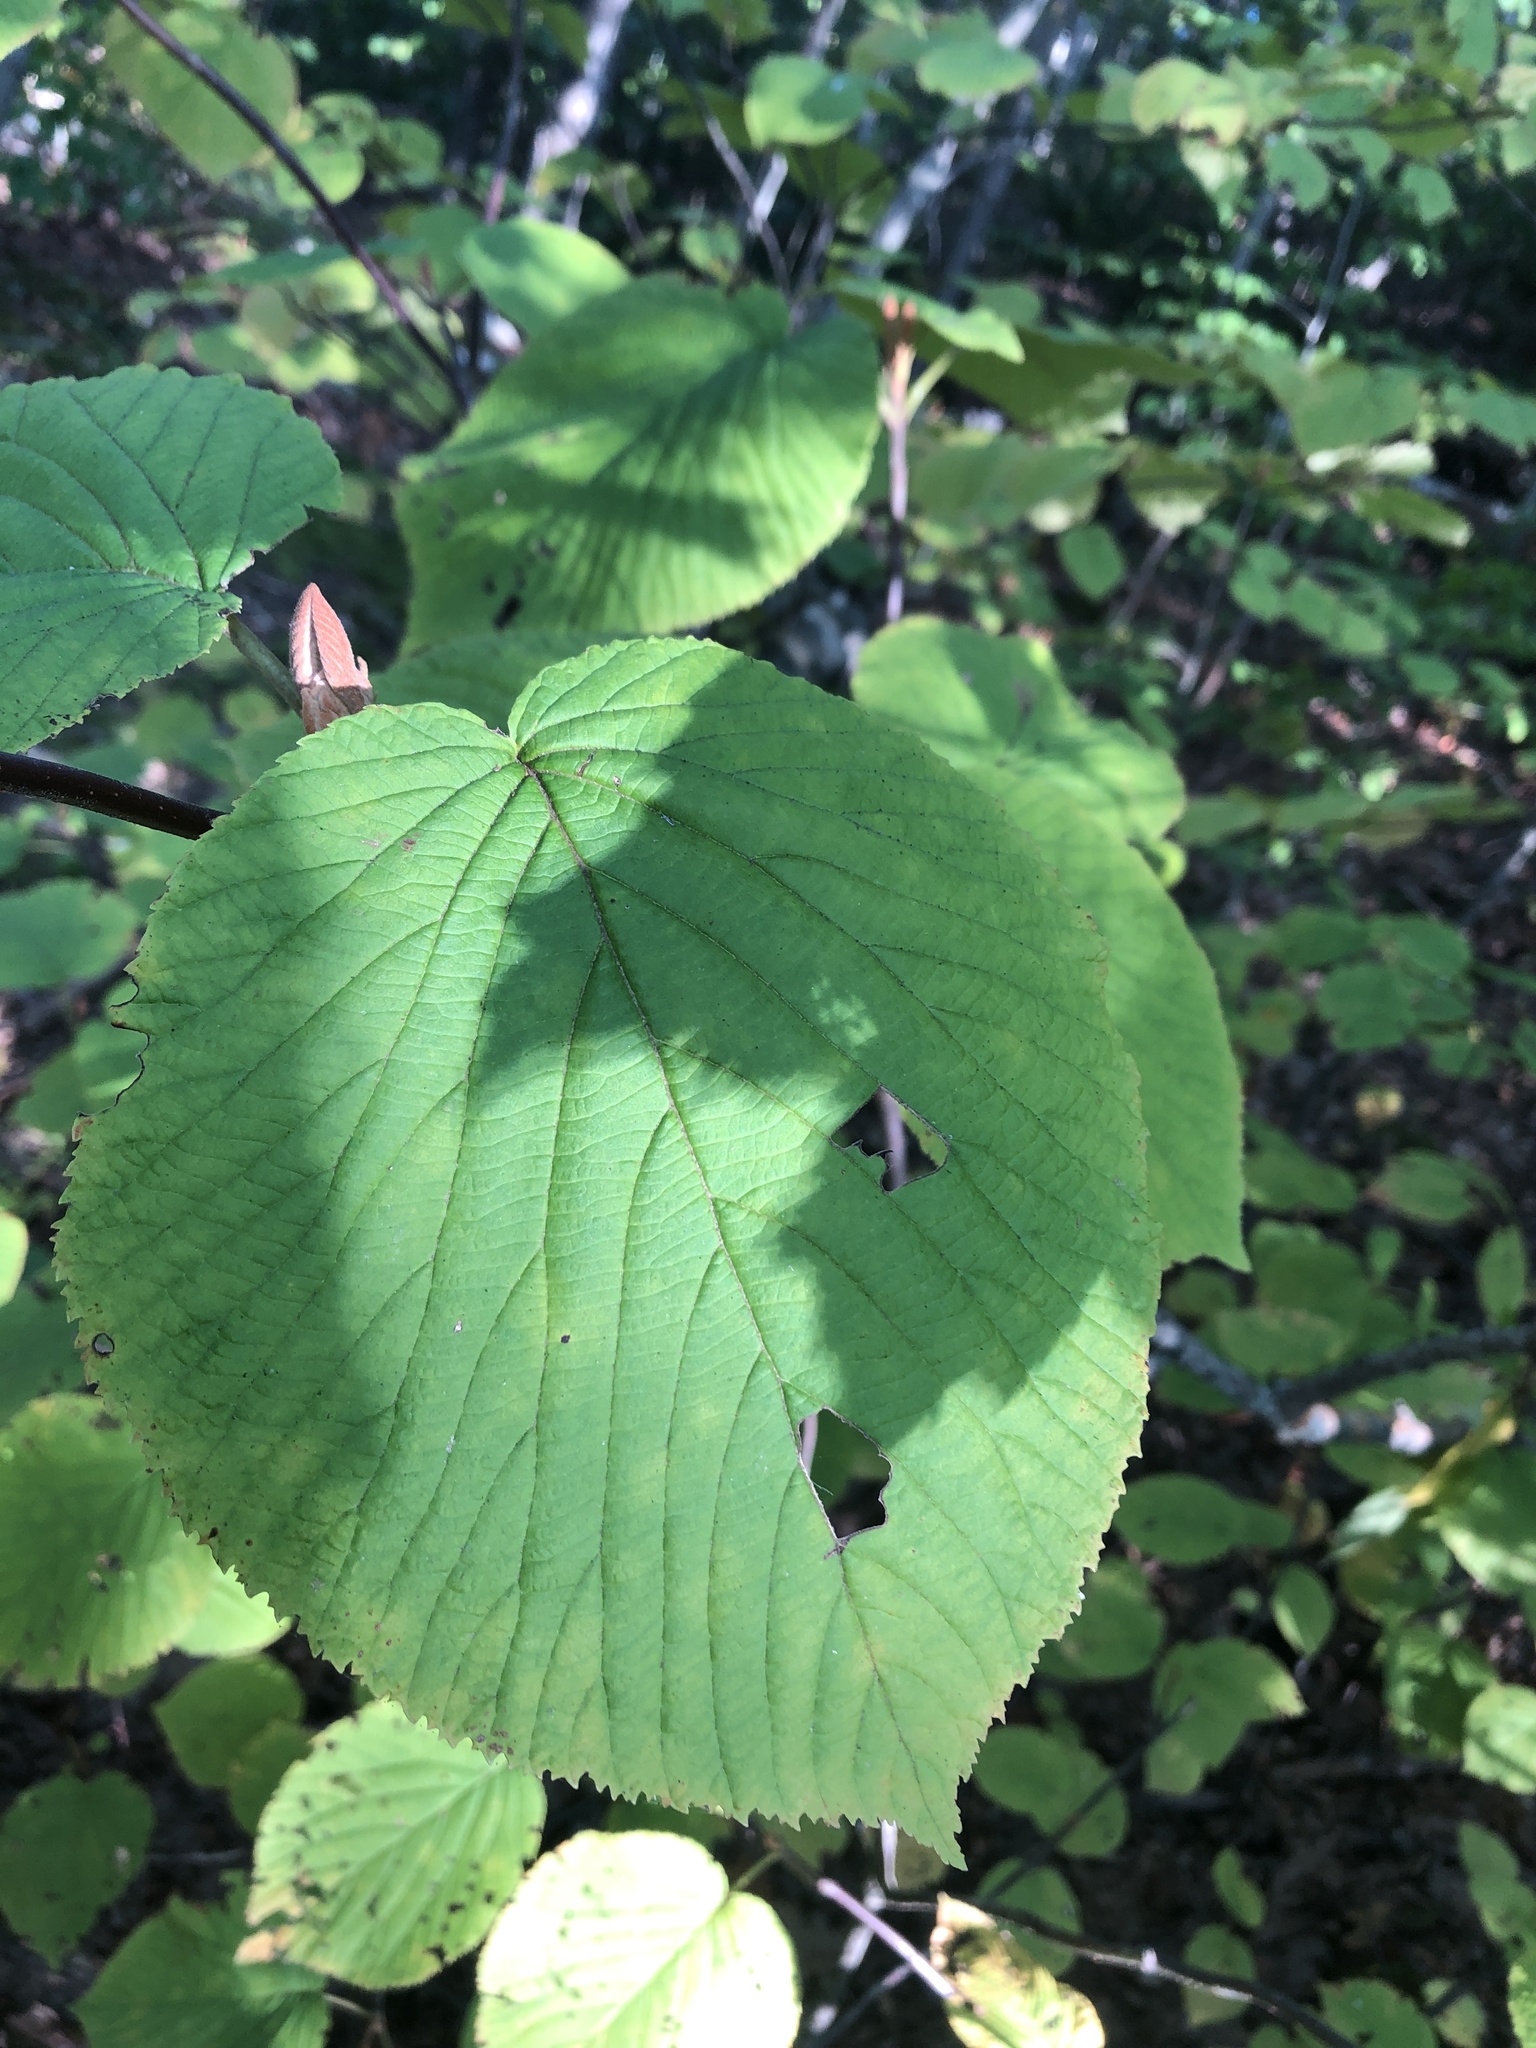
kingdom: Plantae
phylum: Tracheophyta
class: Magnoliopsida
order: Dipsacales
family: Viburnaceae
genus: Viburnum
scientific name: Viburnum lantanoides
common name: Hobblebush
